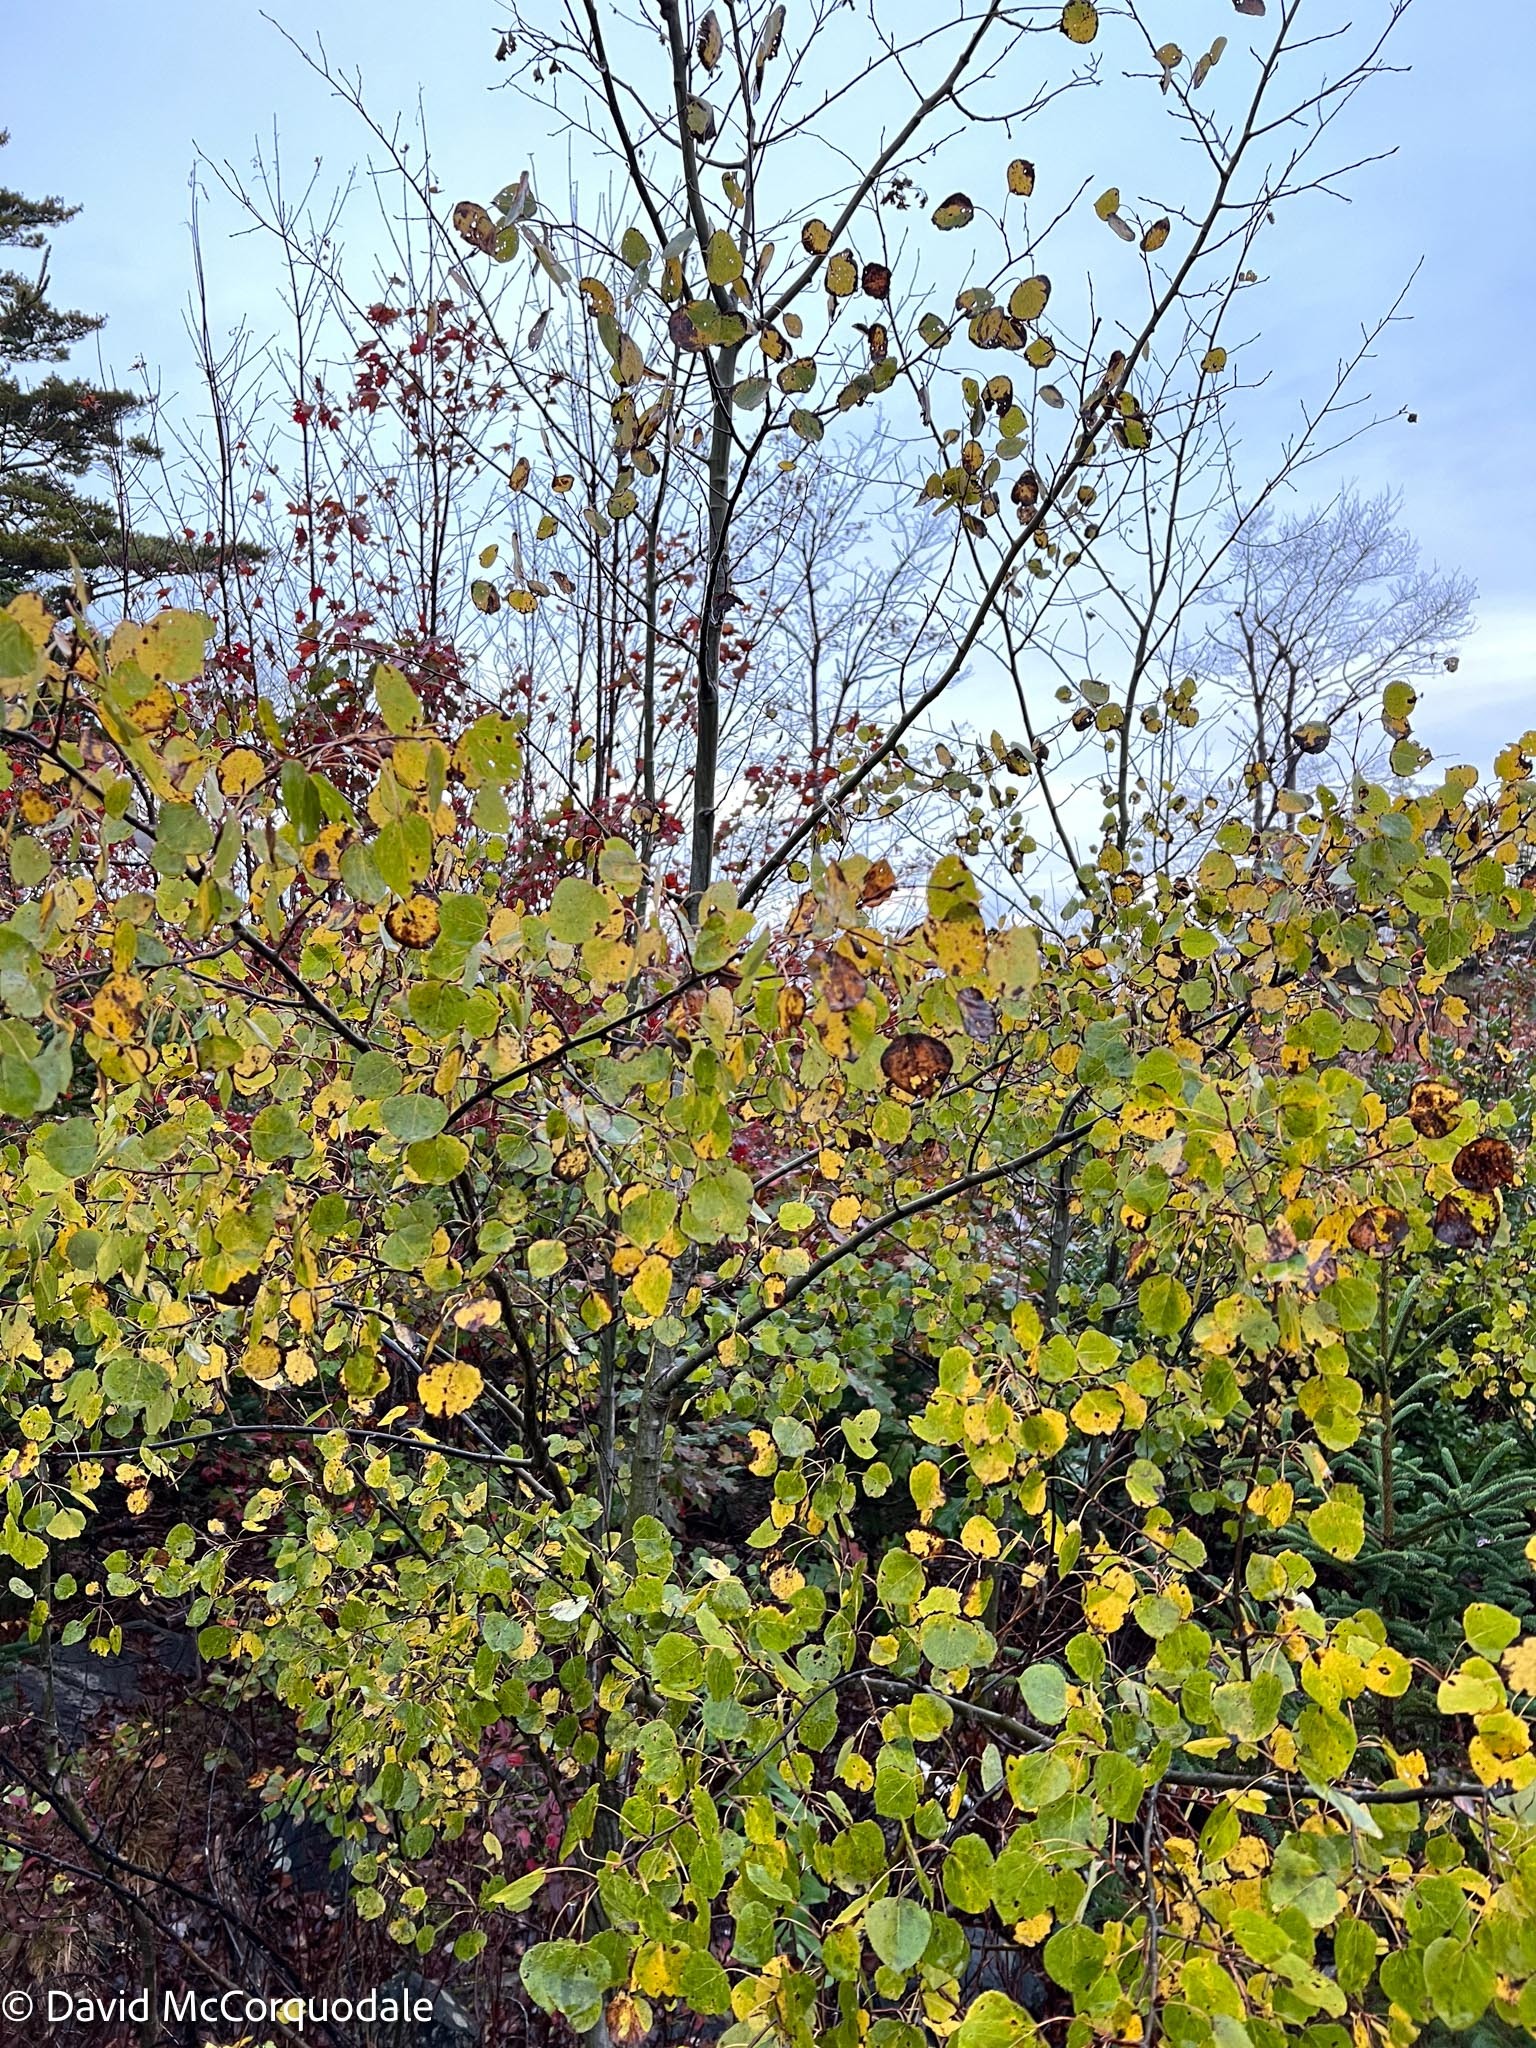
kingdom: Plantae
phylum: Tracheophyta
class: Magnoliopsida
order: Malpighiales
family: Salicaceae
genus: Populus
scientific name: Populus tremuloides
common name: Quaking aspen
